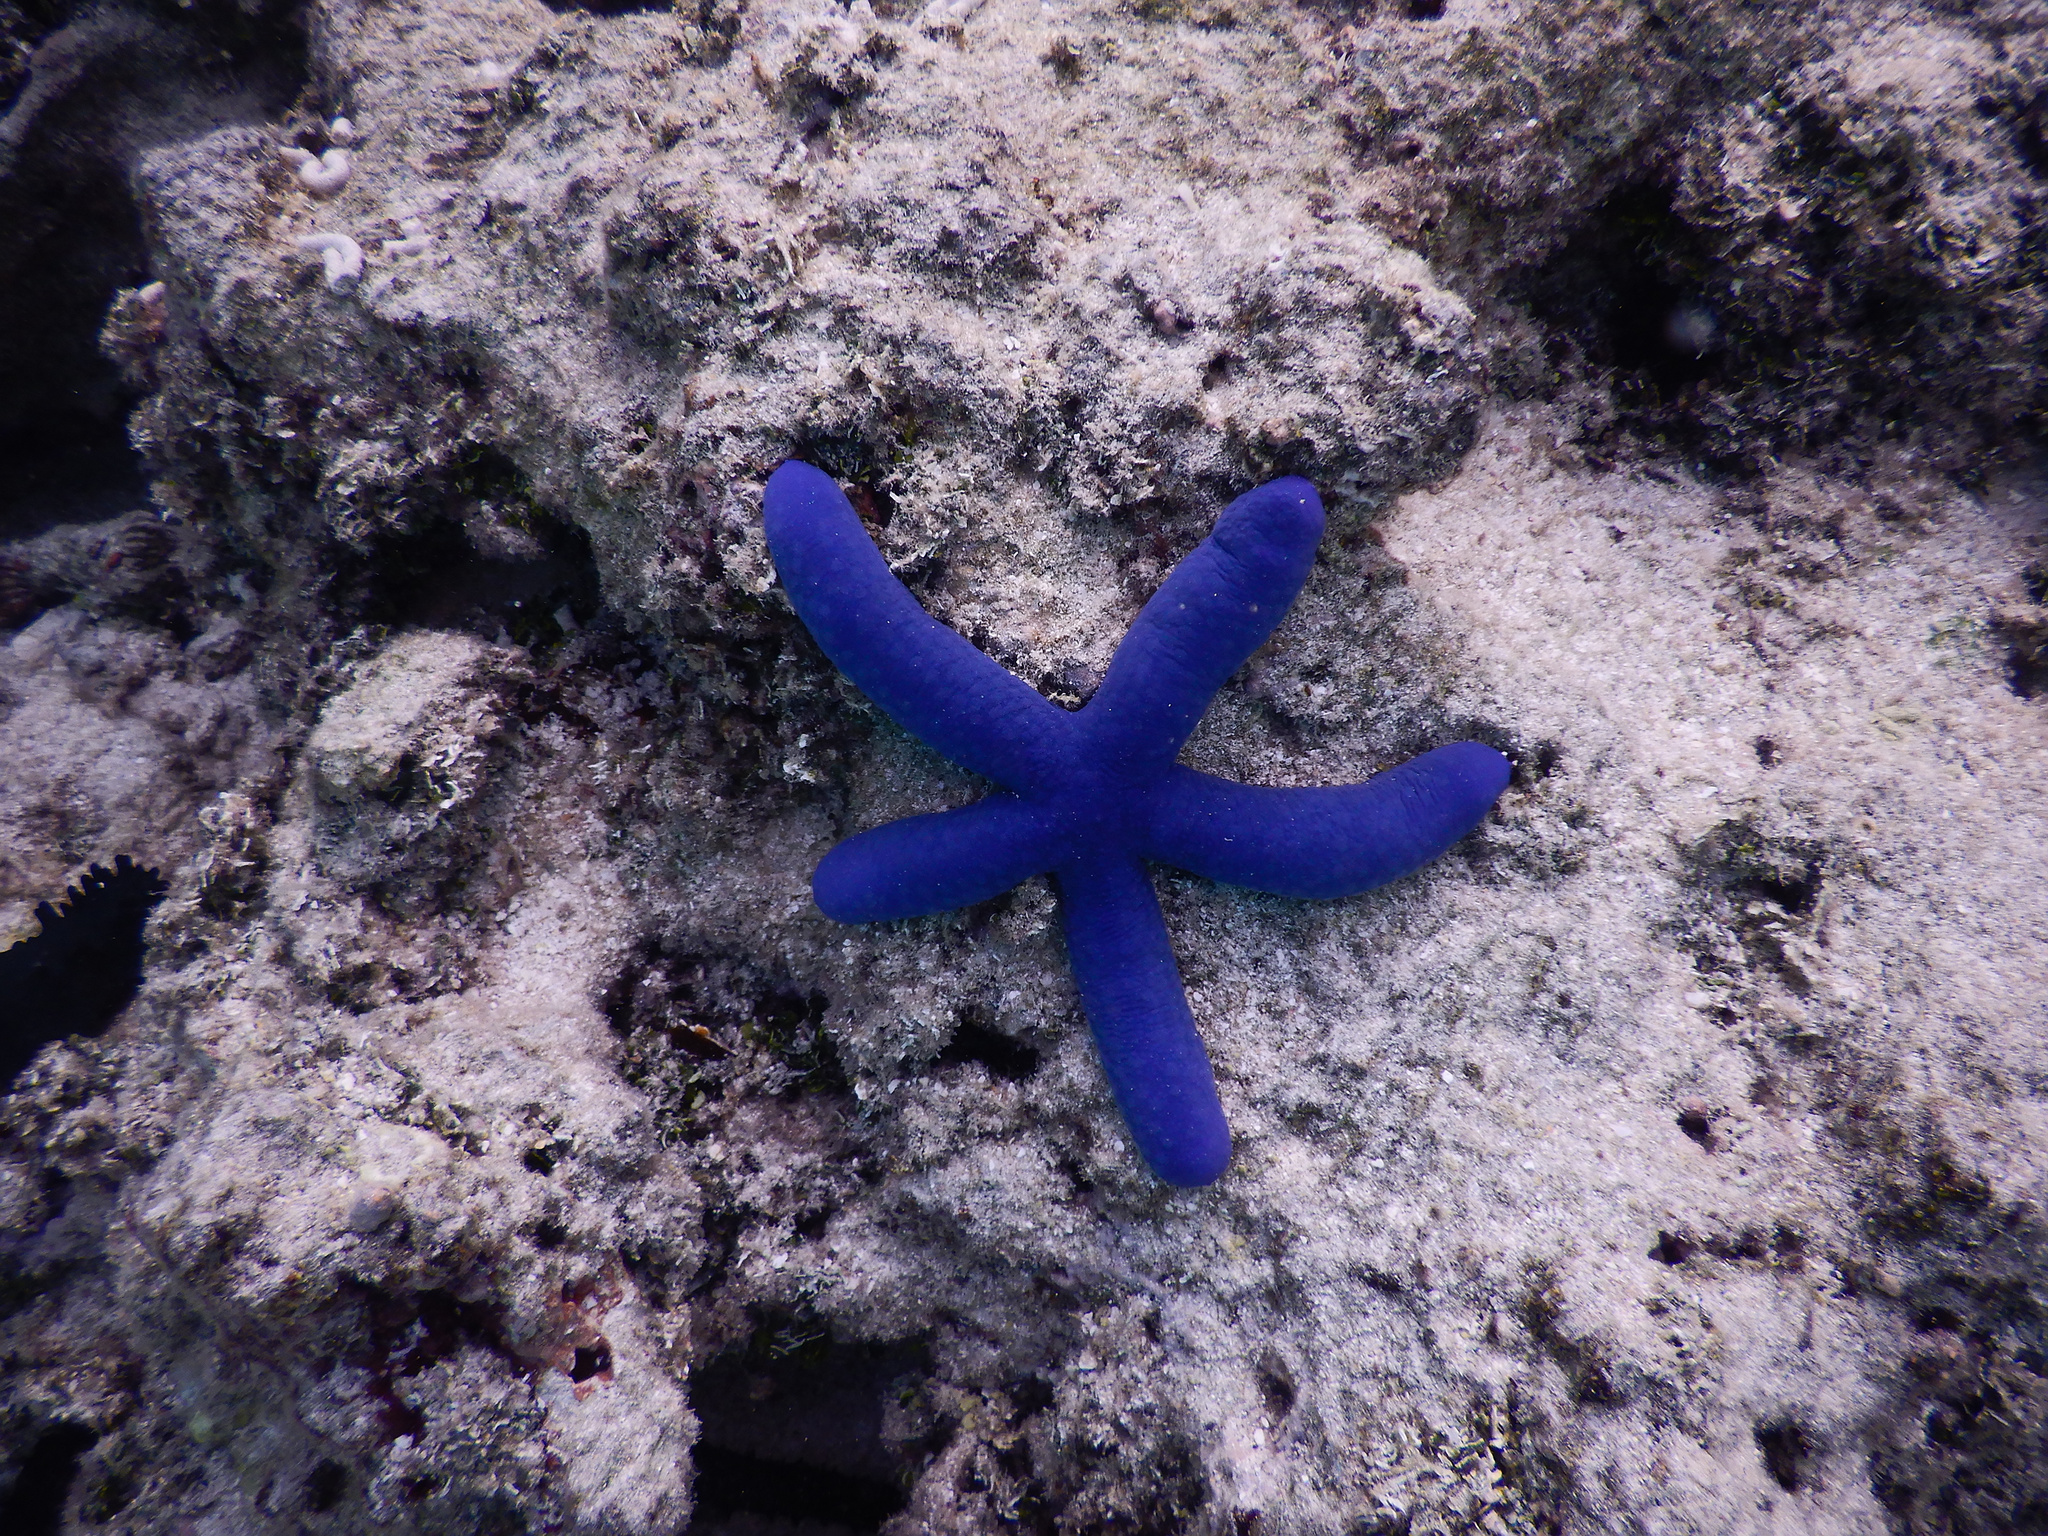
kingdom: Animalia
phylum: Echinodermata
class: Asteroidea
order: Valvatida
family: Ophidiasteridae
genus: Linckia
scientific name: Linckia laevigata
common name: Azure sea star
